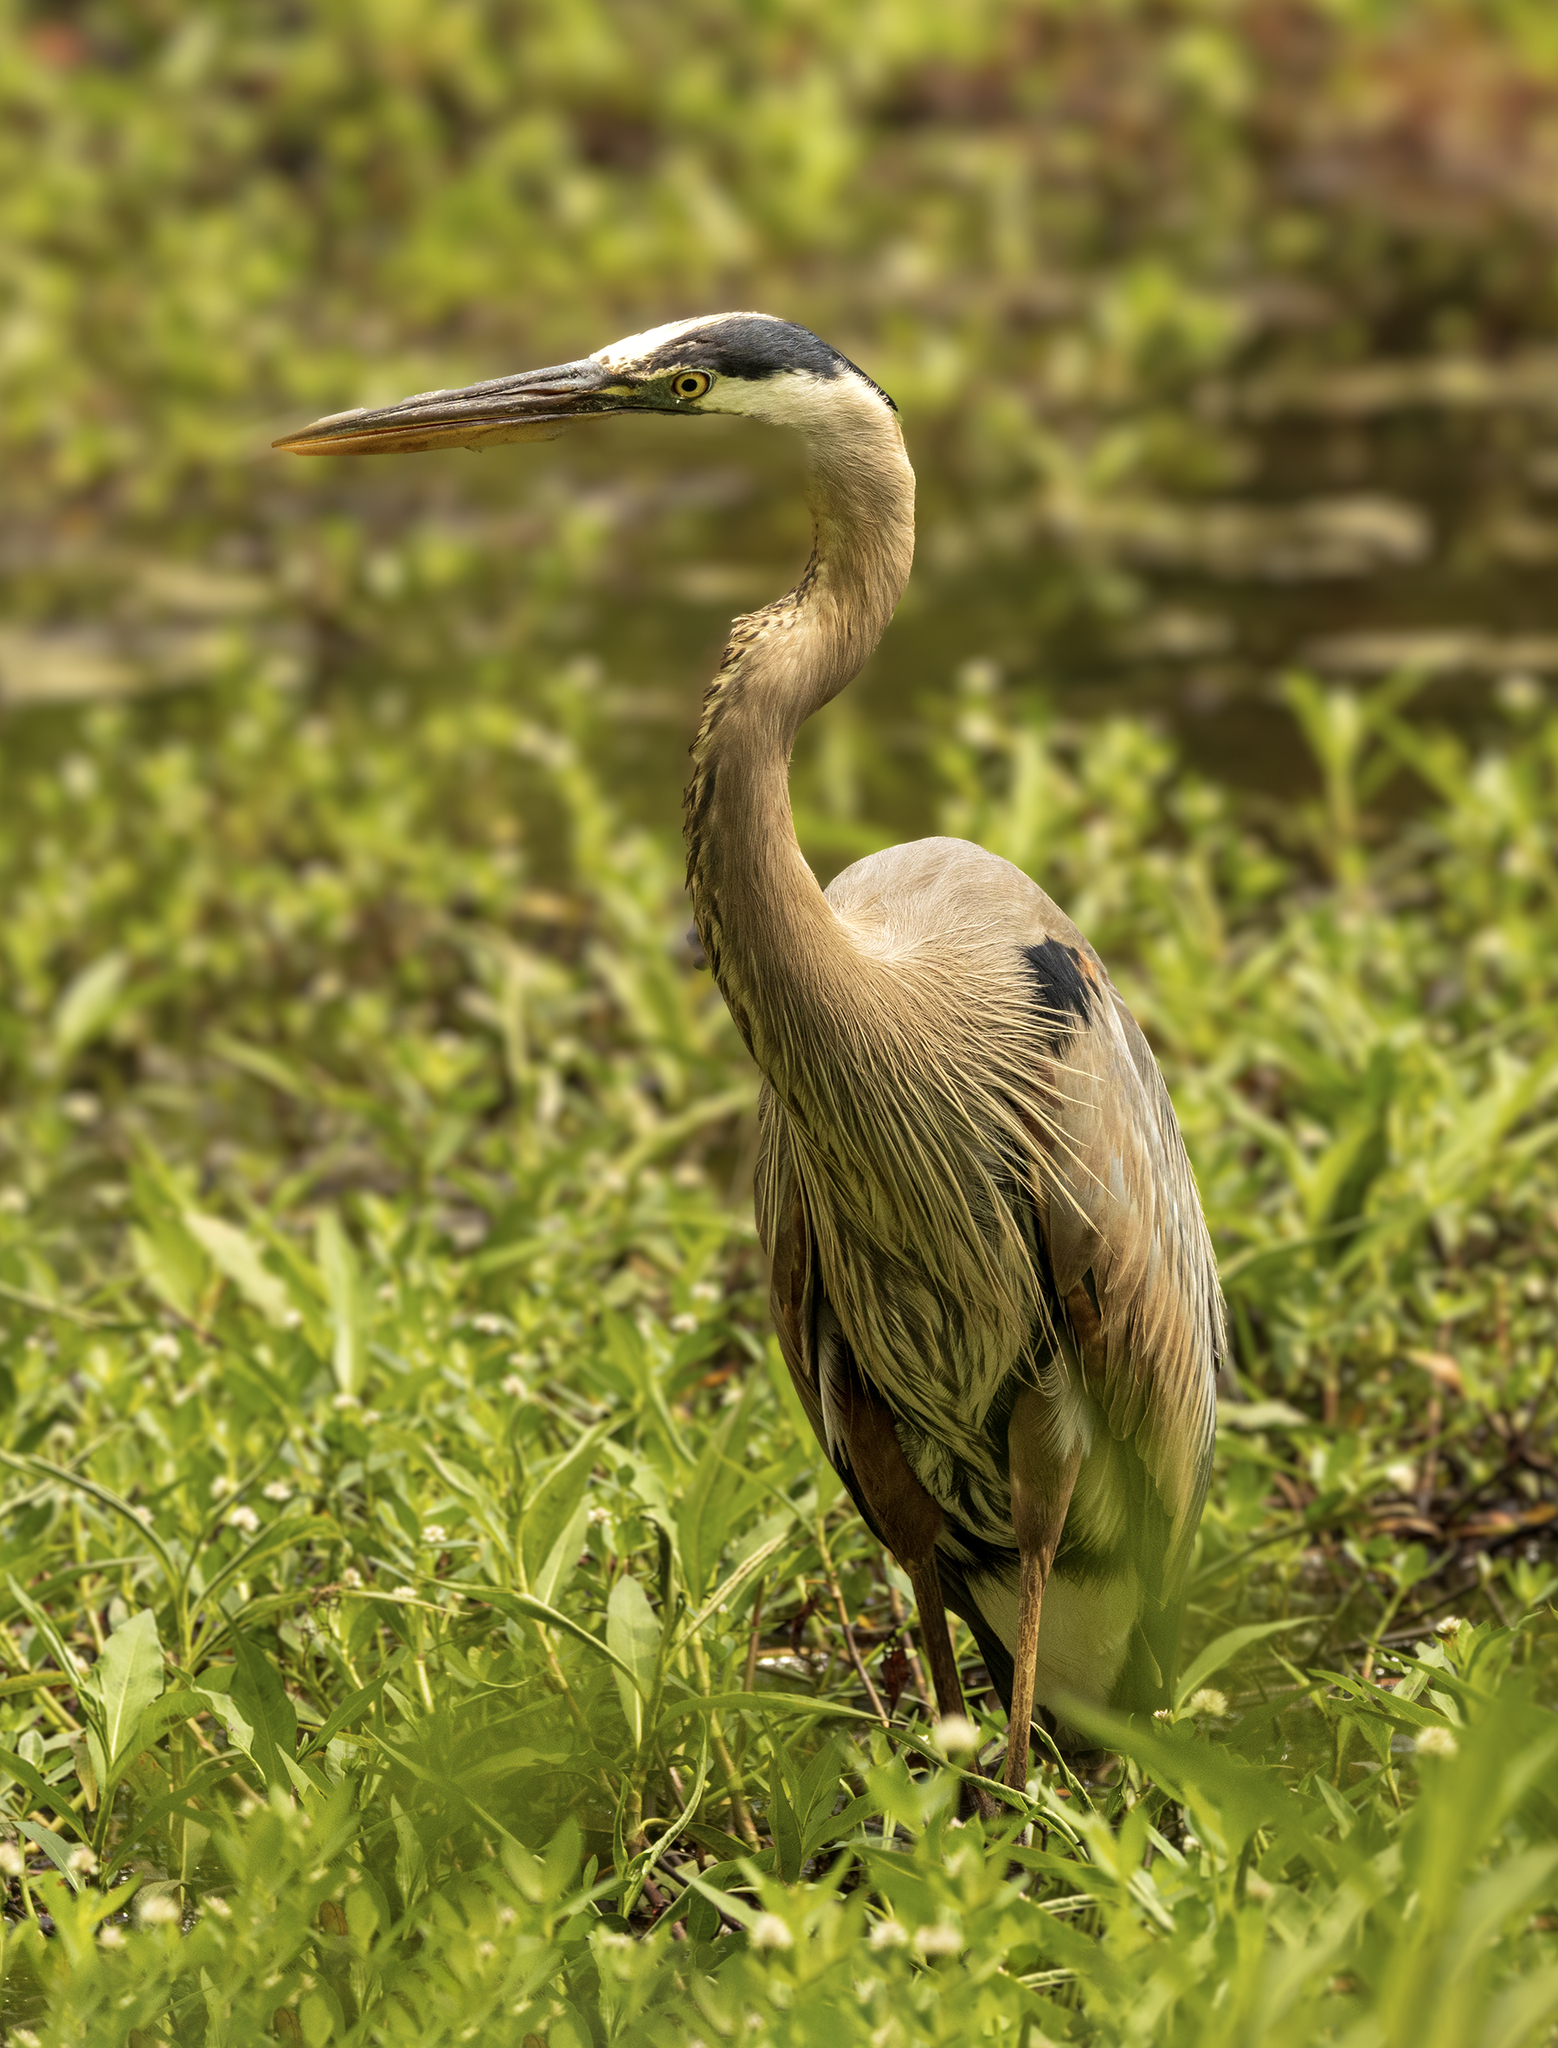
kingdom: Animalia
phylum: Chordata
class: Aves
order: Pelecaniformes
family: Ardeidae
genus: Ardea
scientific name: Ardea herodias
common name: Great blue heron
